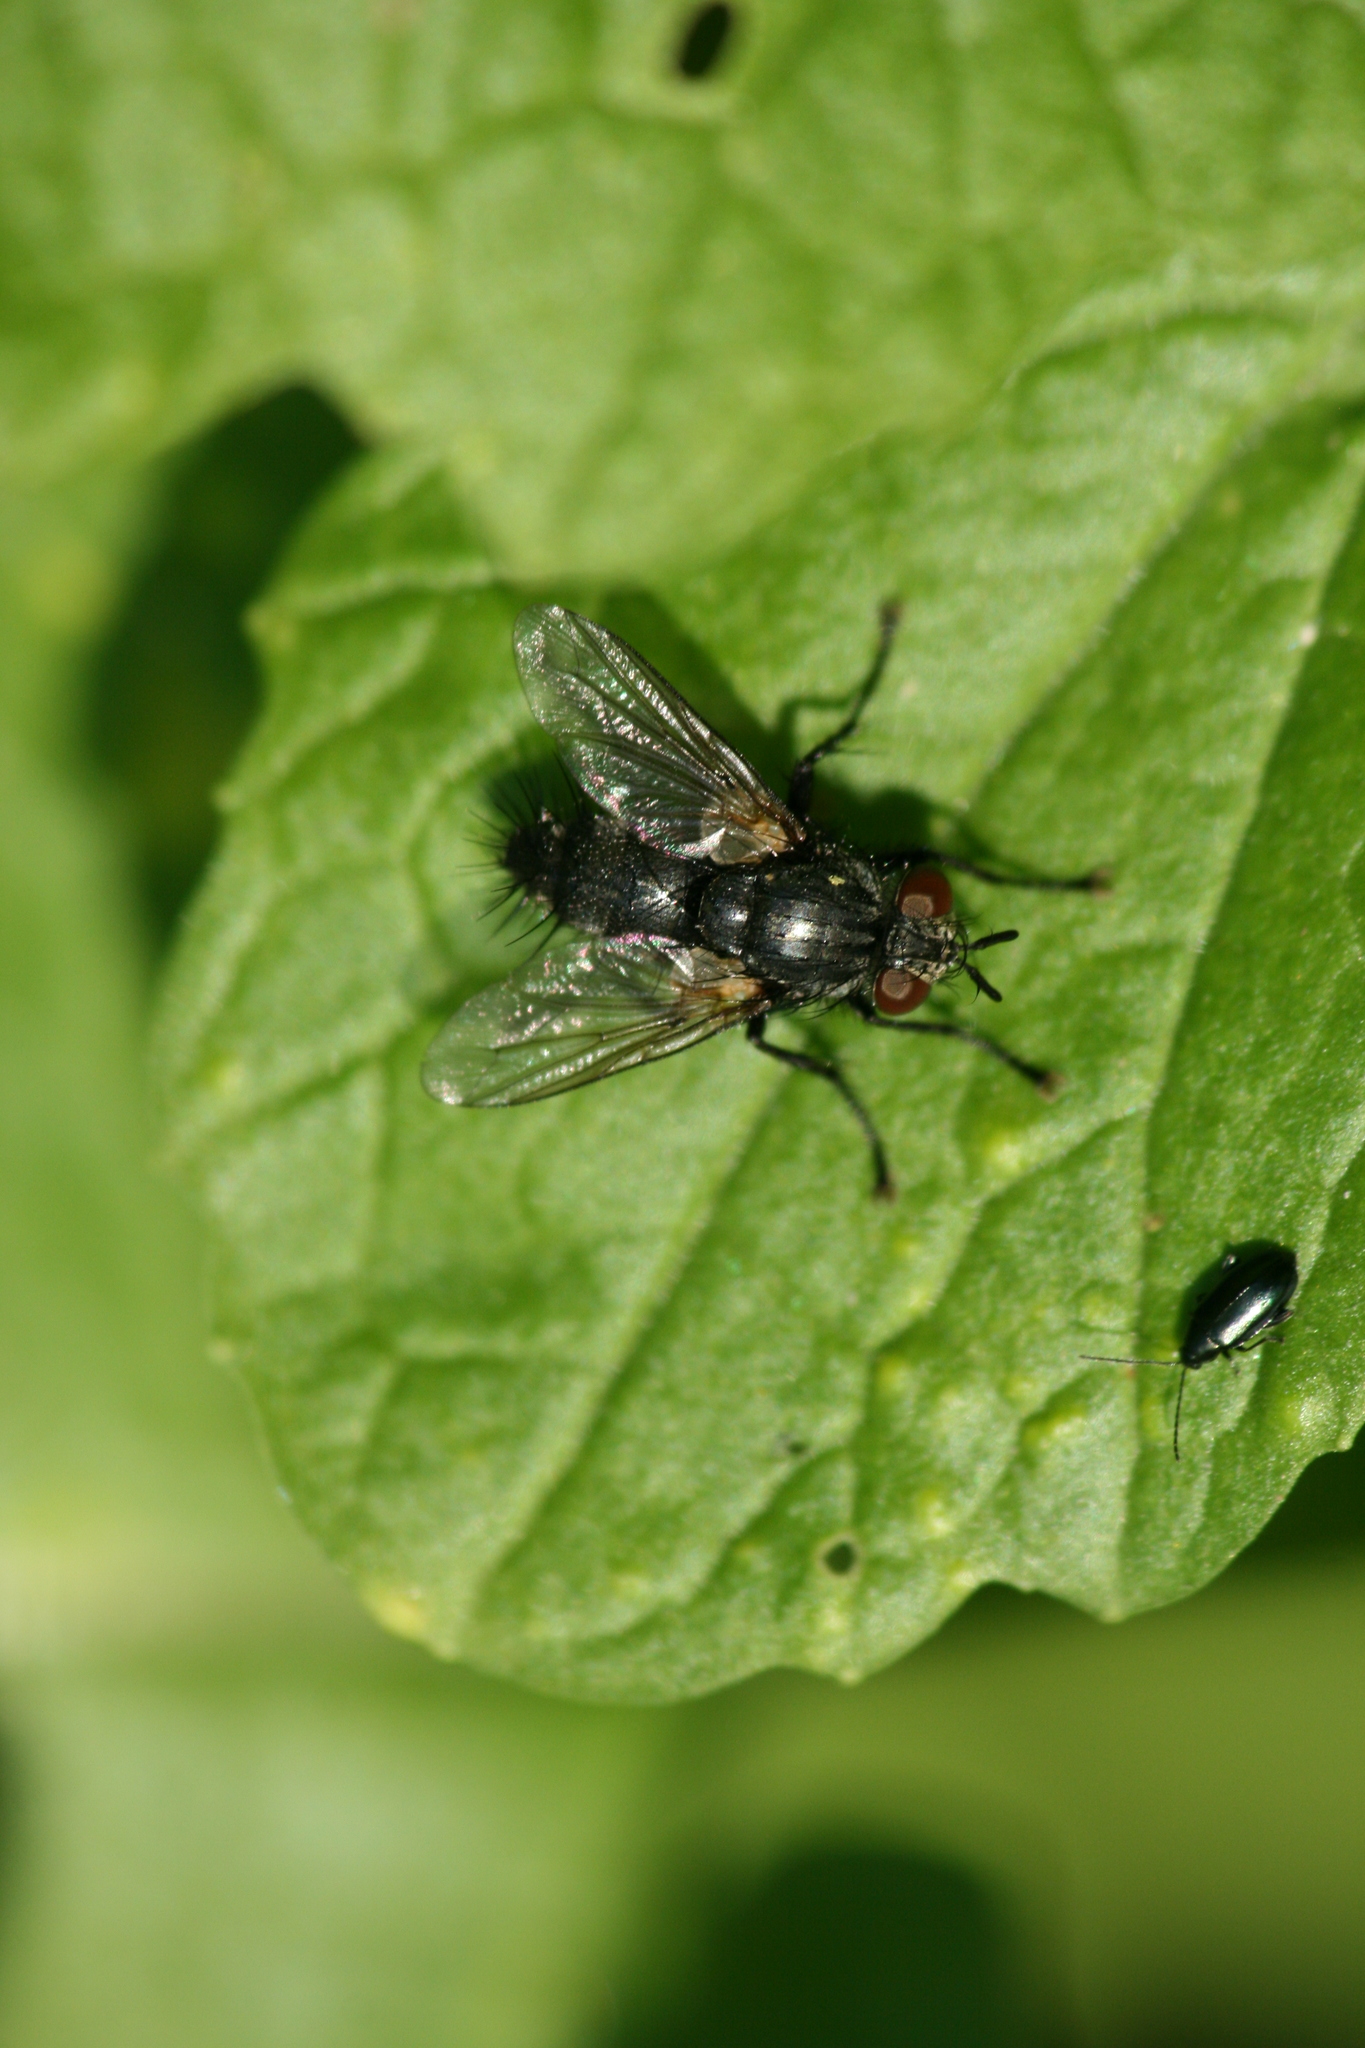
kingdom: Animalia
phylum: Arthropoda
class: Insecta
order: Diptera
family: Tachinidae
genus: Voria
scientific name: Voria ruralis
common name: Parasitic fly
